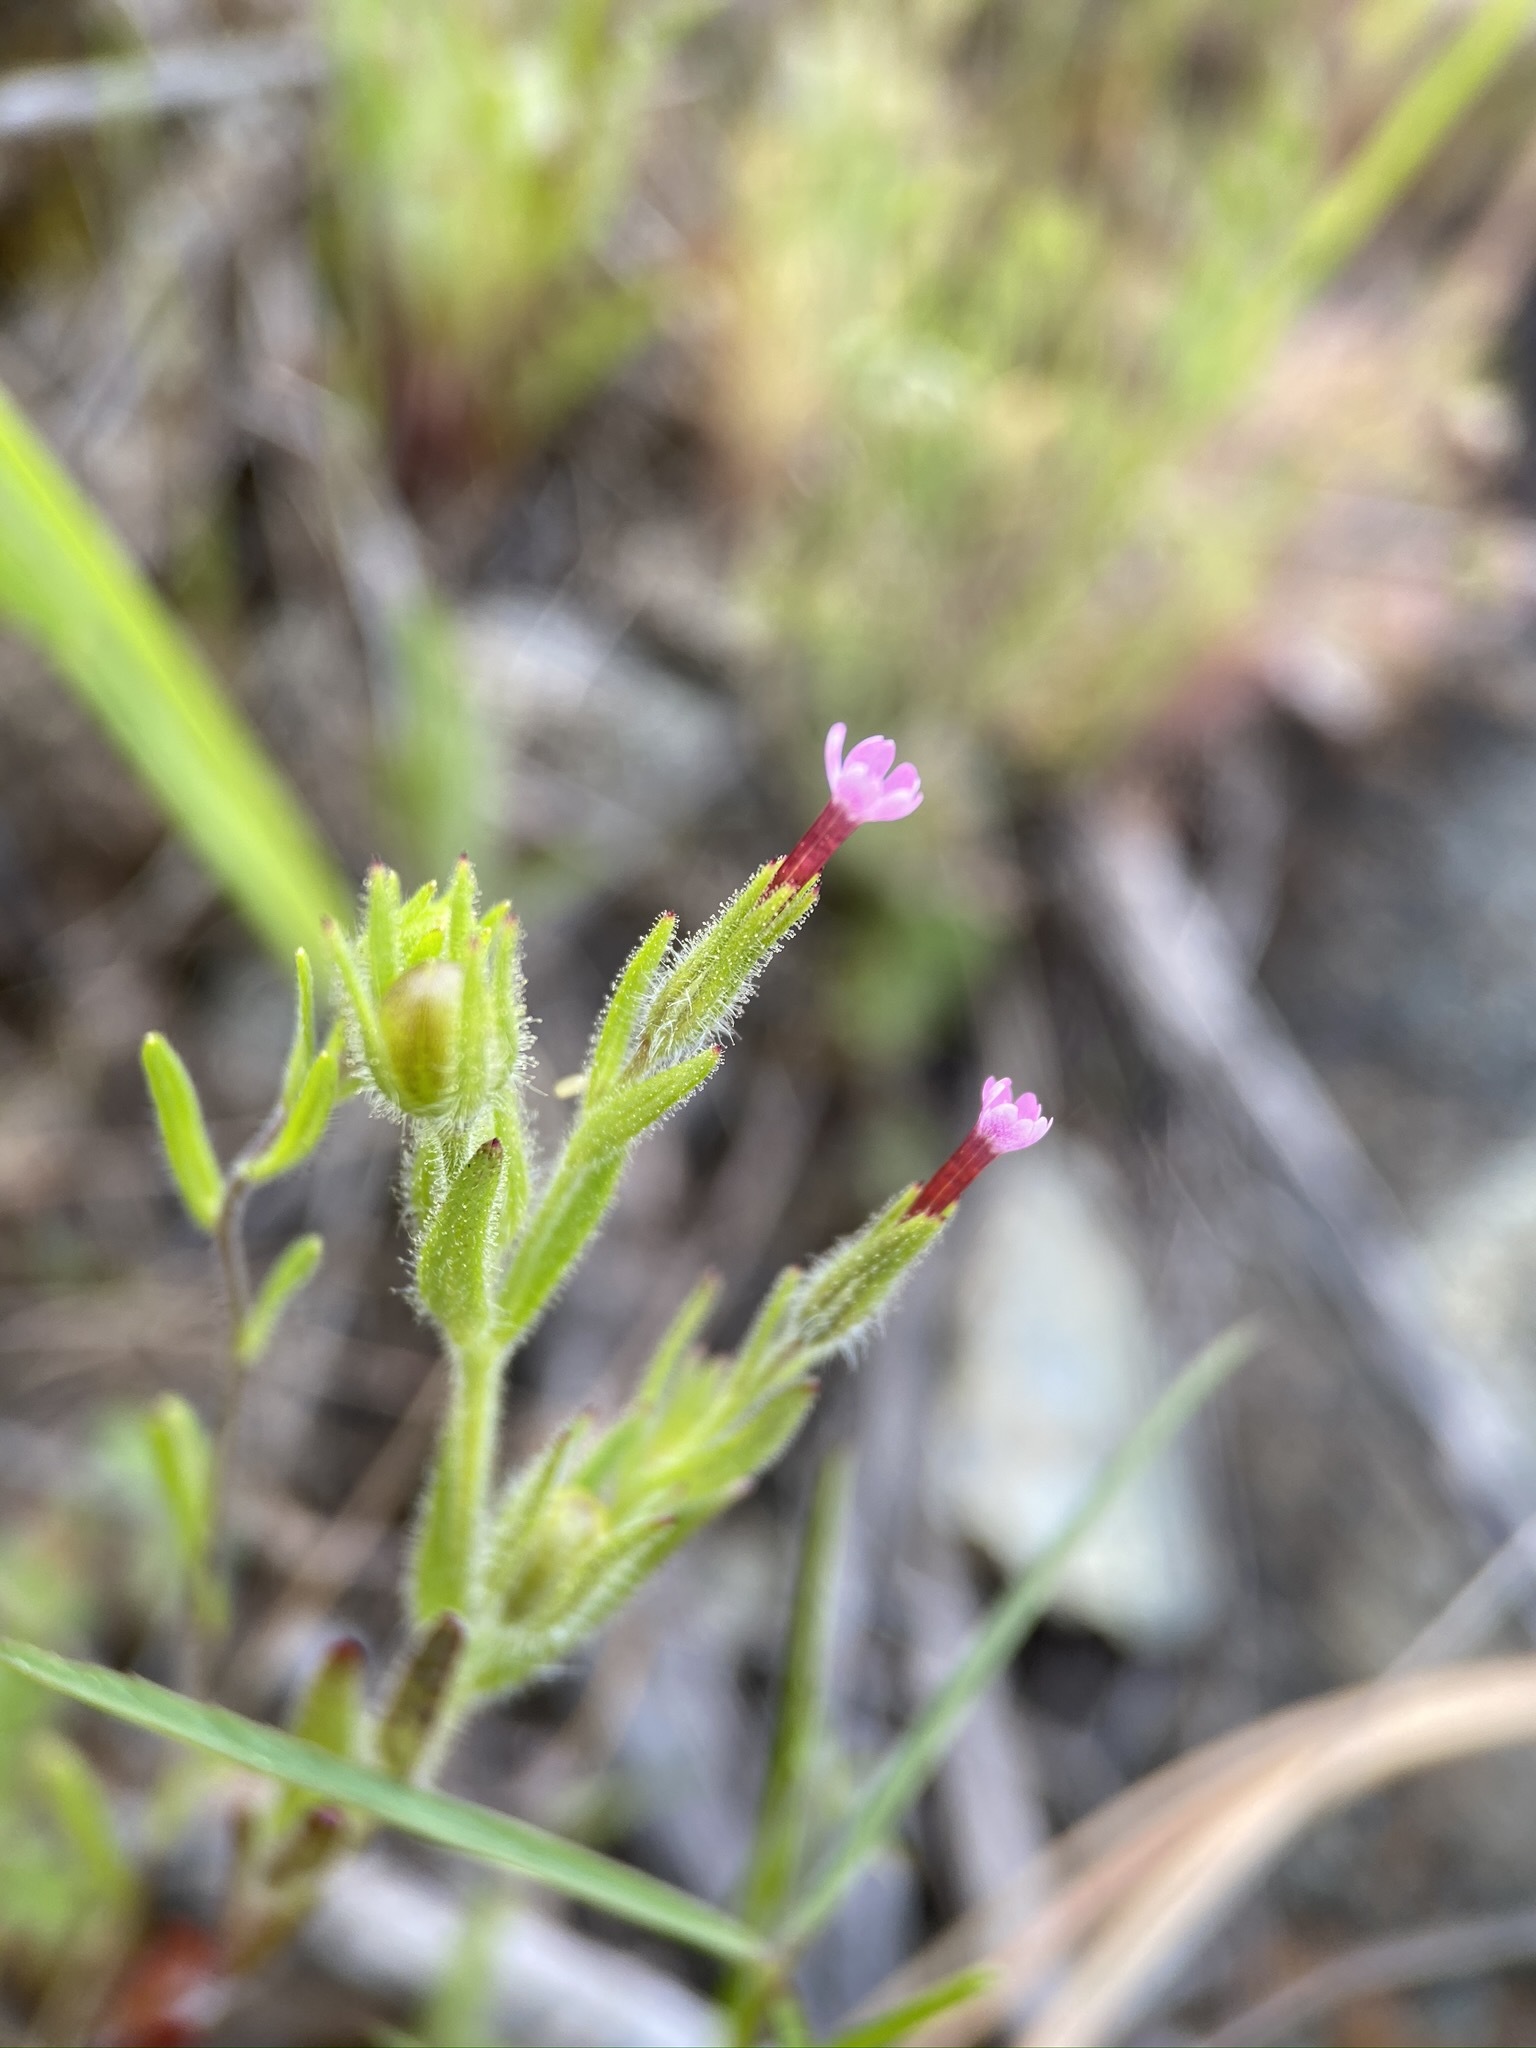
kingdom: Plantae
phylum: Tracheophyta
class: Magnoliopsida
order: Ericales
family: Polemoniaceae
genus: Phlox
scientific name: Phlox gracilis
